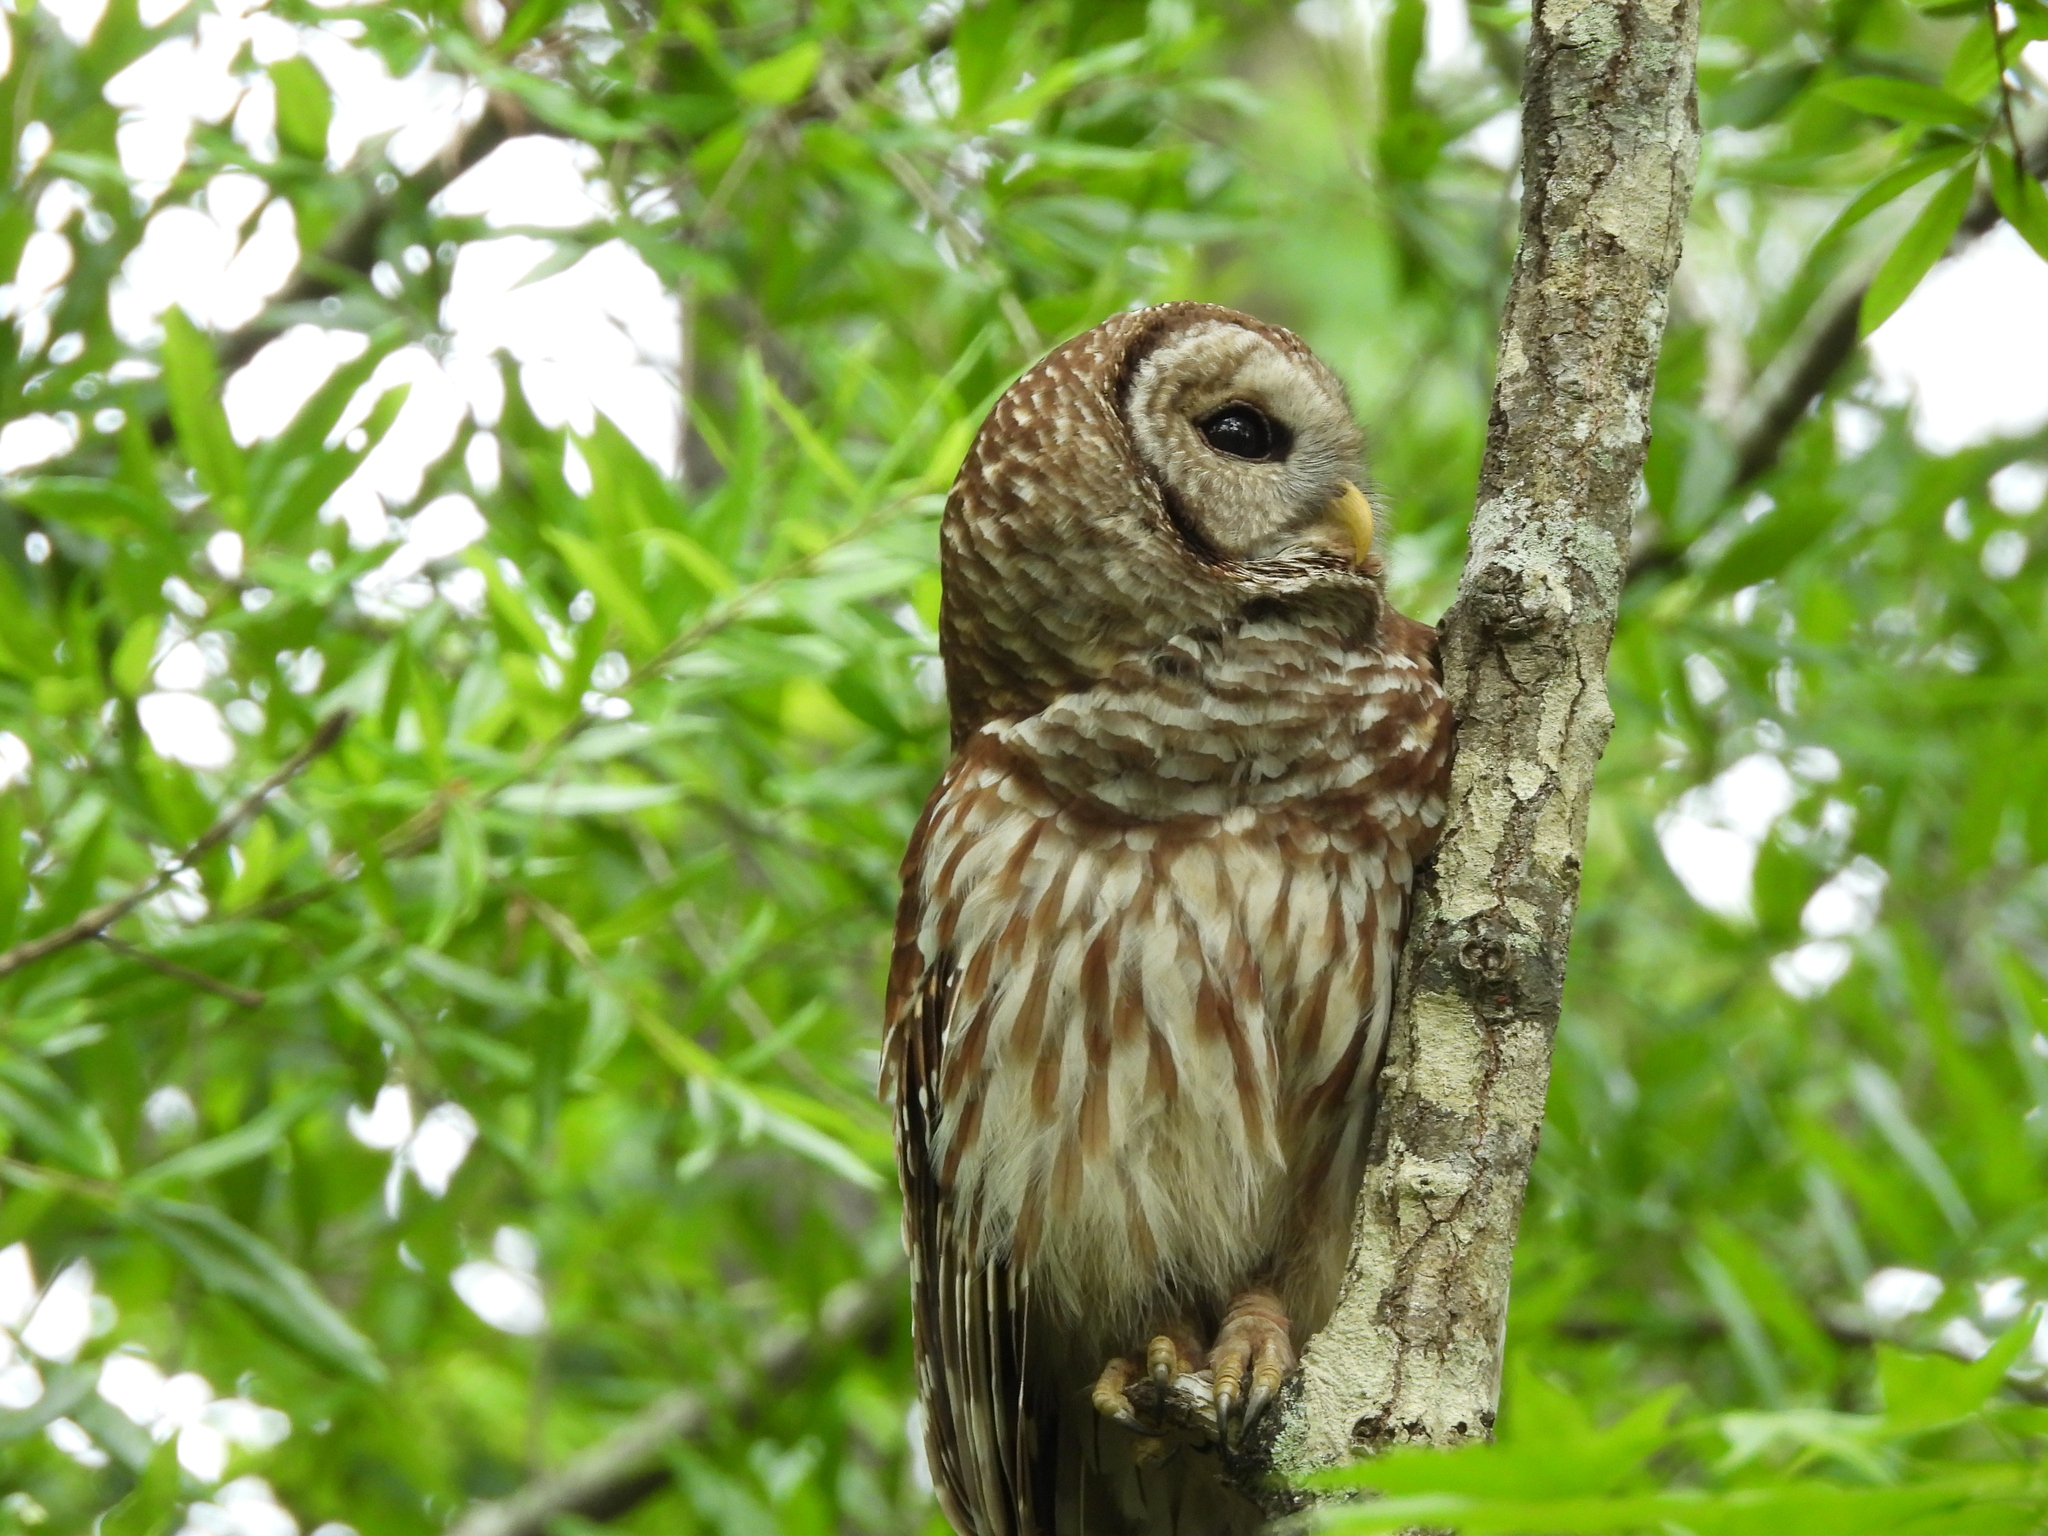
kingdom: Animalia
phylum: Chordata
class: Aves
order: Strigiformes
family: Strigidae
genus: Strix
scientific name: Strix varia
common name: Barred owl
